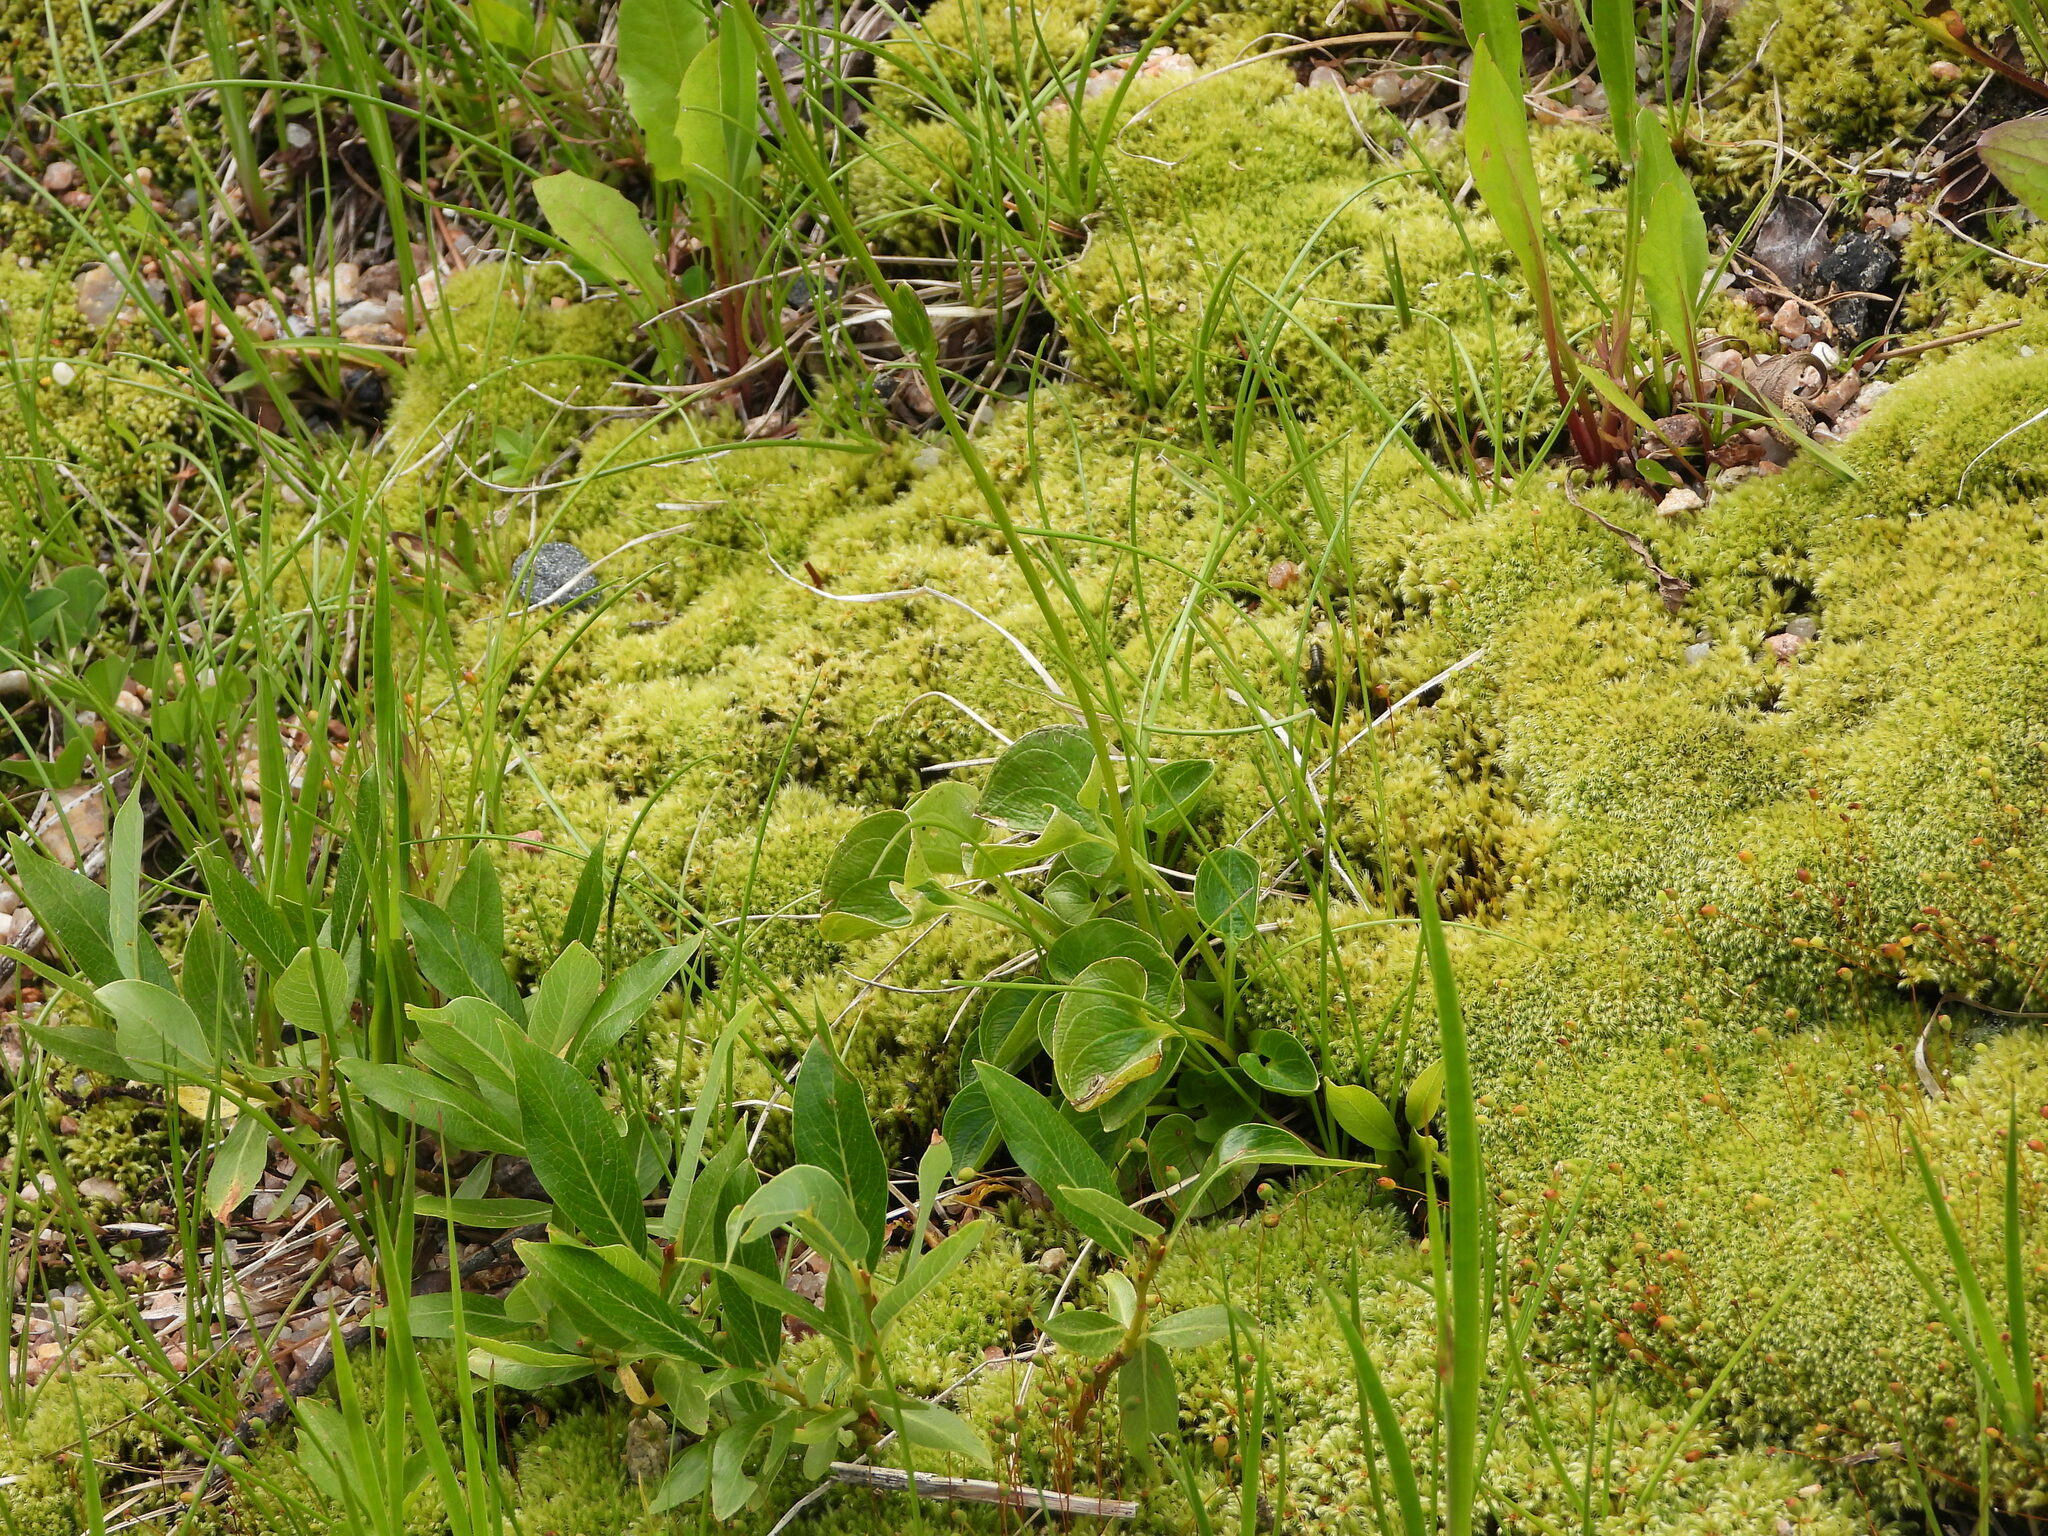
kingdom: Plantae
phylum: Tracheophyta
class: Magnoliopsida
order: Celastrales
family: Parnassiaceae
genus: Parnassia
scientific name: Parnassia fimbriata
